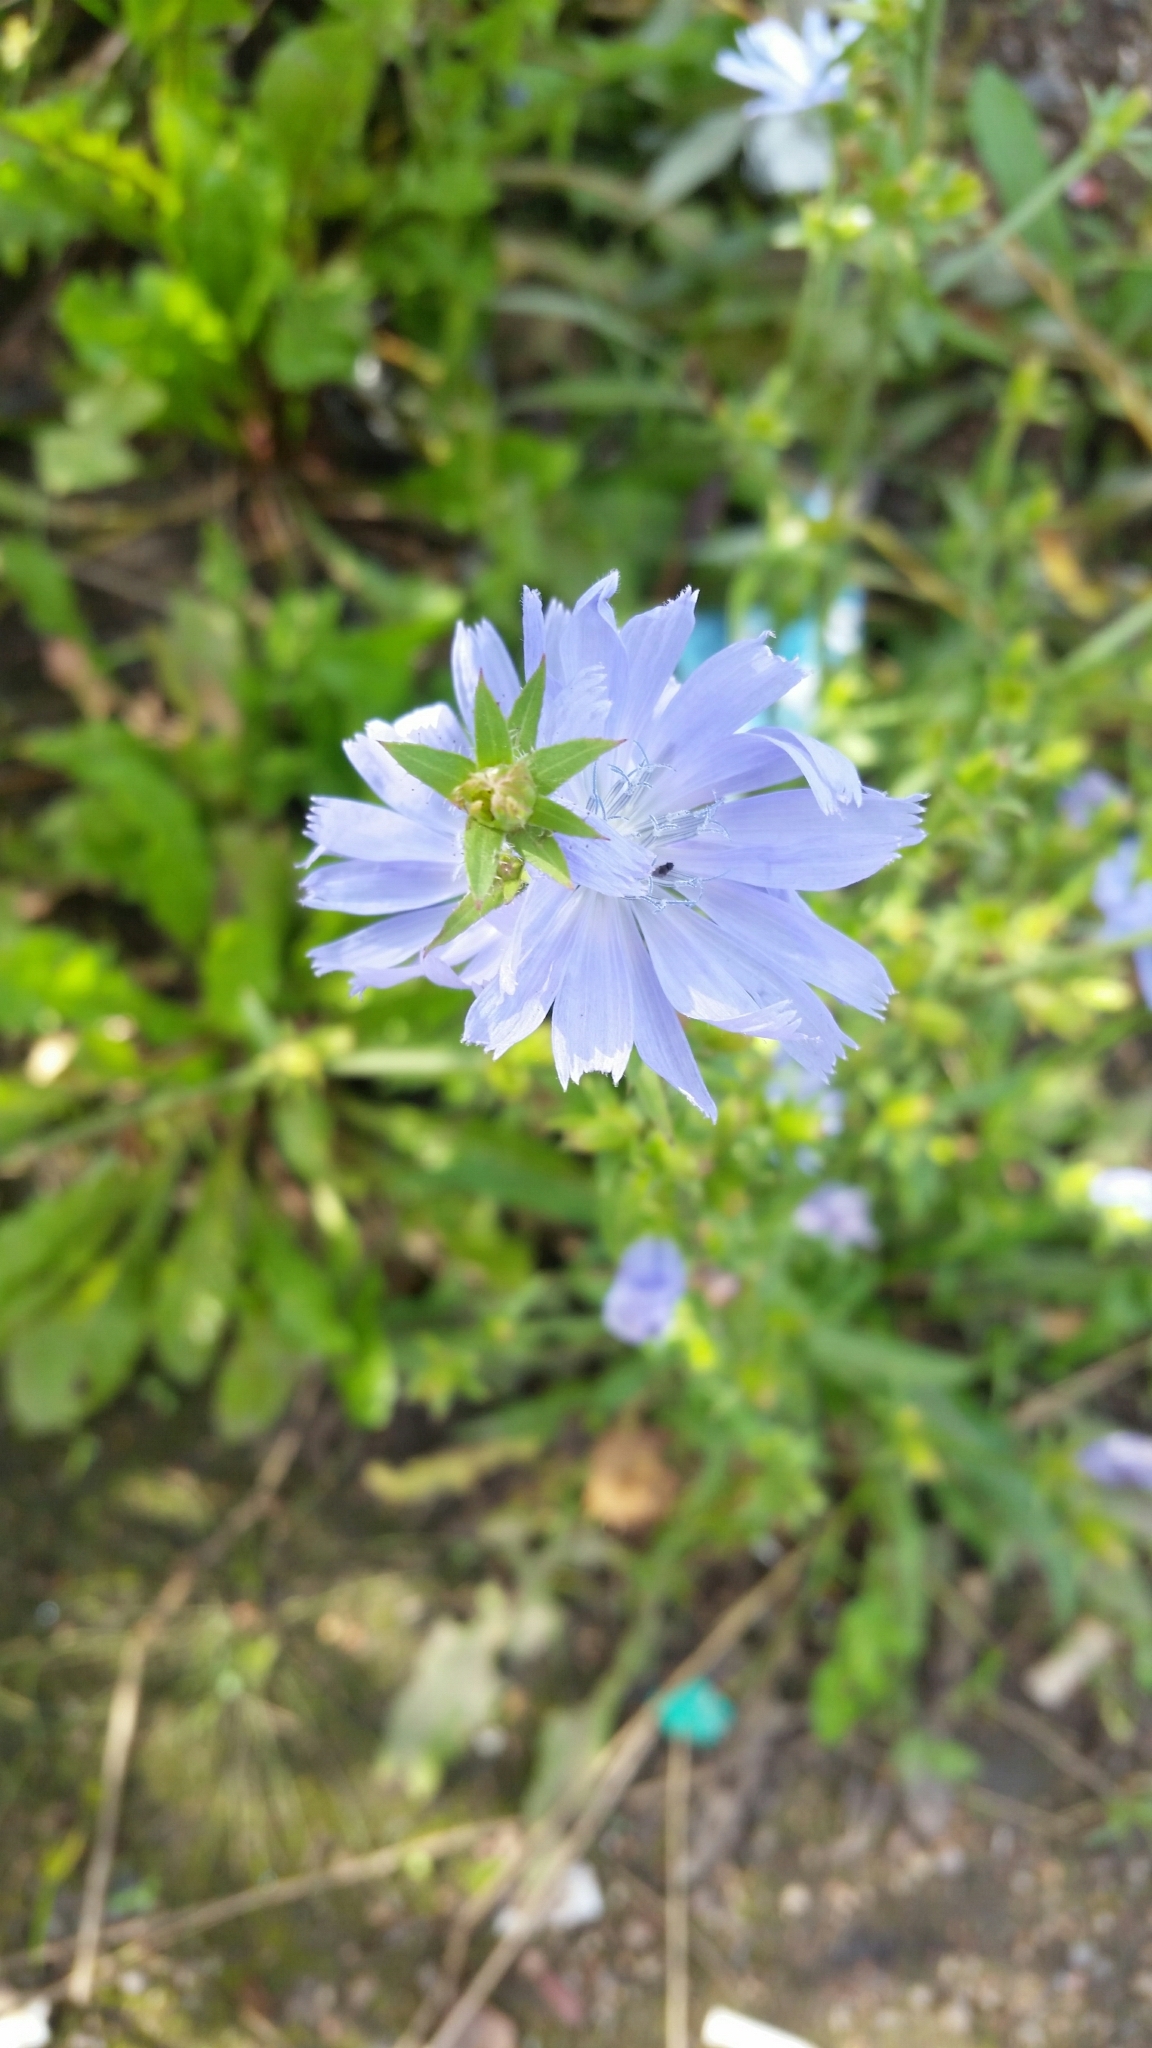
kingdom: Plantae
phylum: Tracheophyta
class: Magnoliopsida
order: Asterales
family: Asteraceae
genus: Cichorium
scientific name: Cichorium intybus
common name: Chicory
